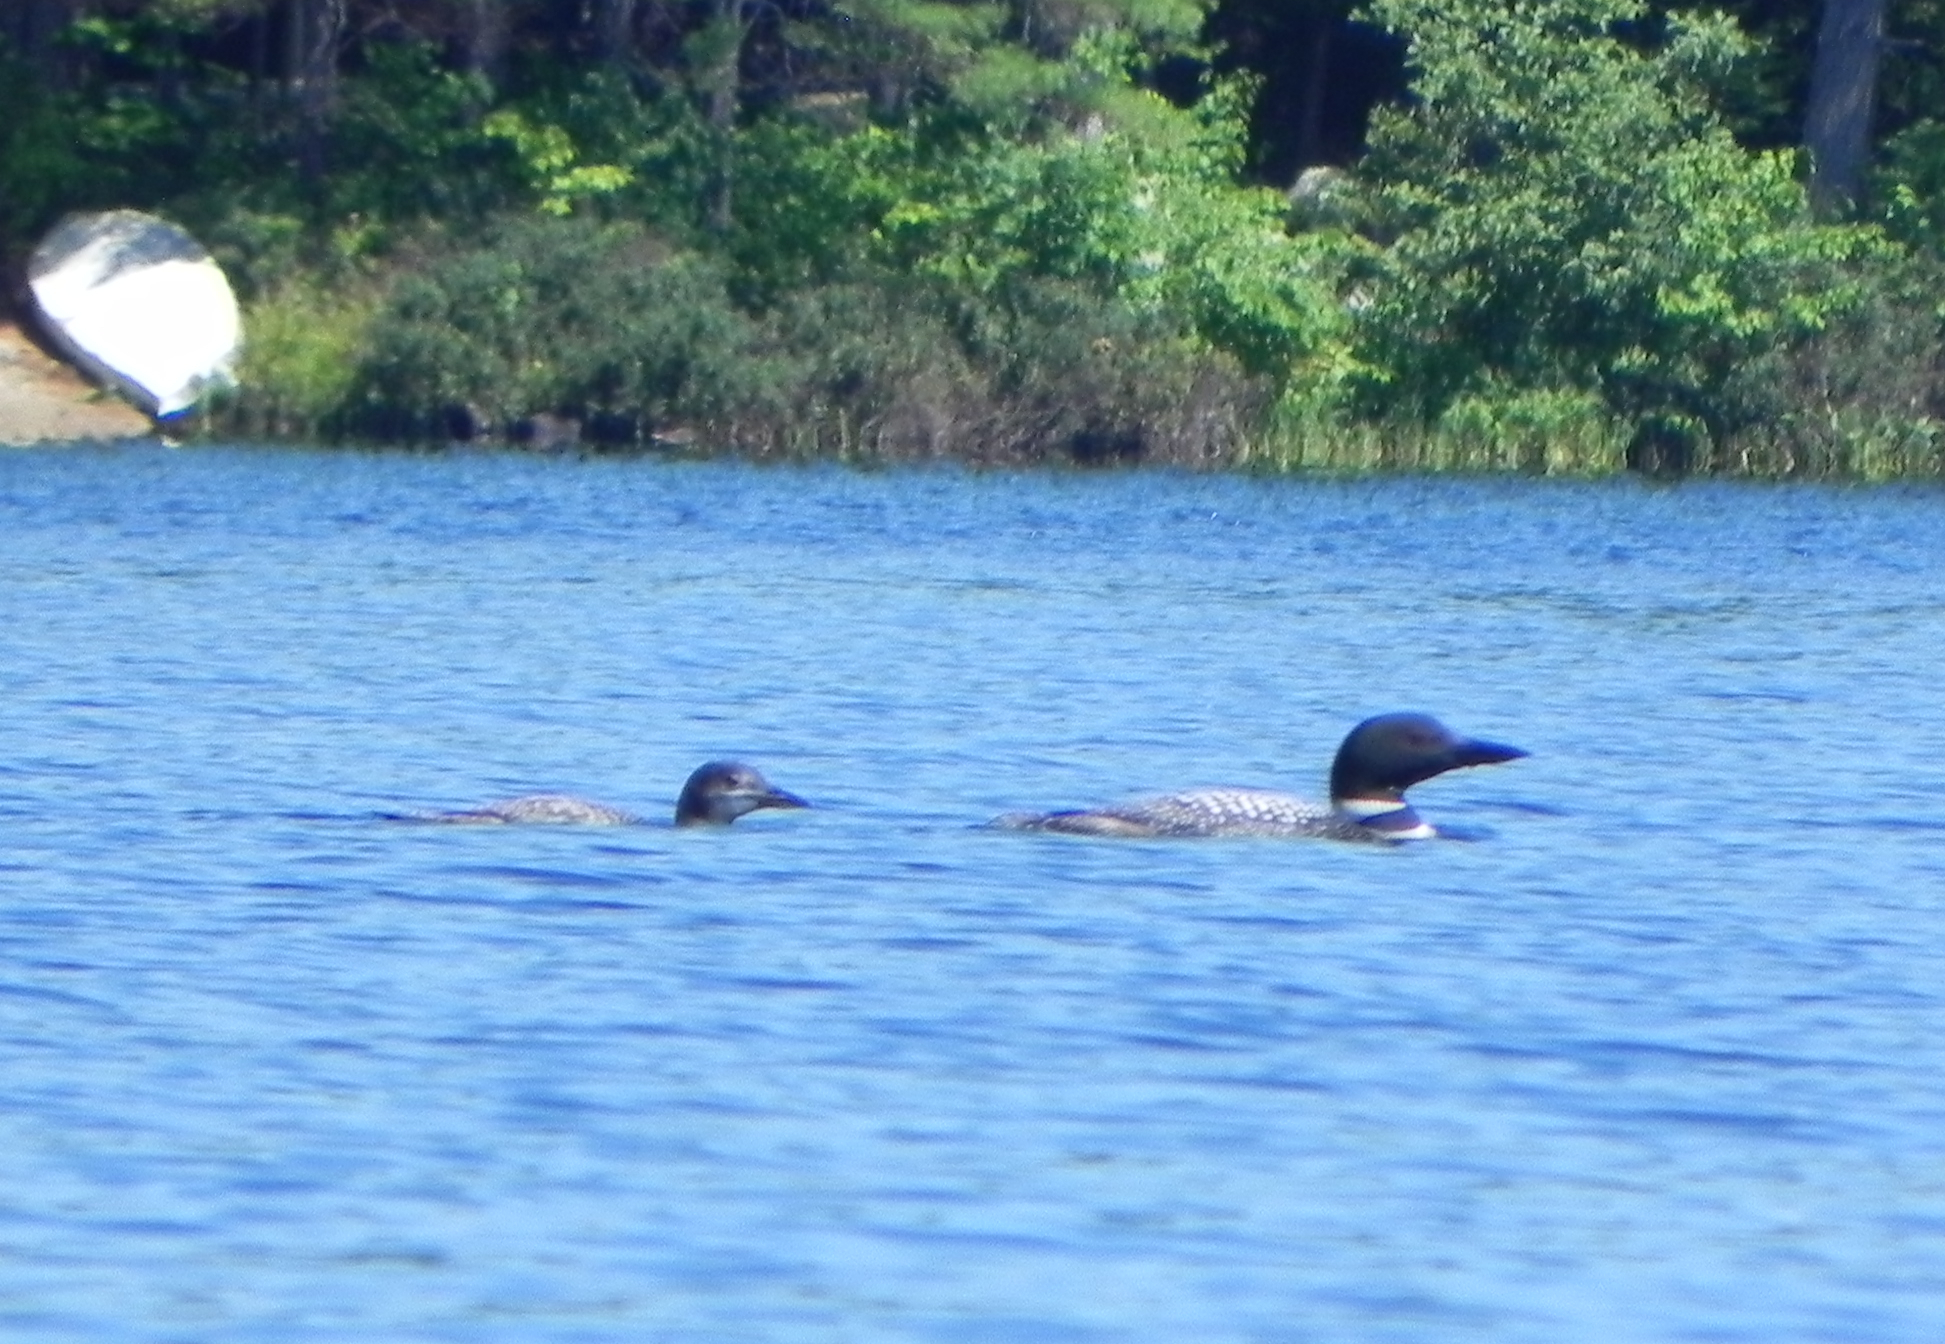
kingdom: Animalia
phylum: Chordata
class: Aves
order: Gaviiformes
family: Gaviidae
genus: Gavia
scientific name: Gavia immer
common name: Common loon
